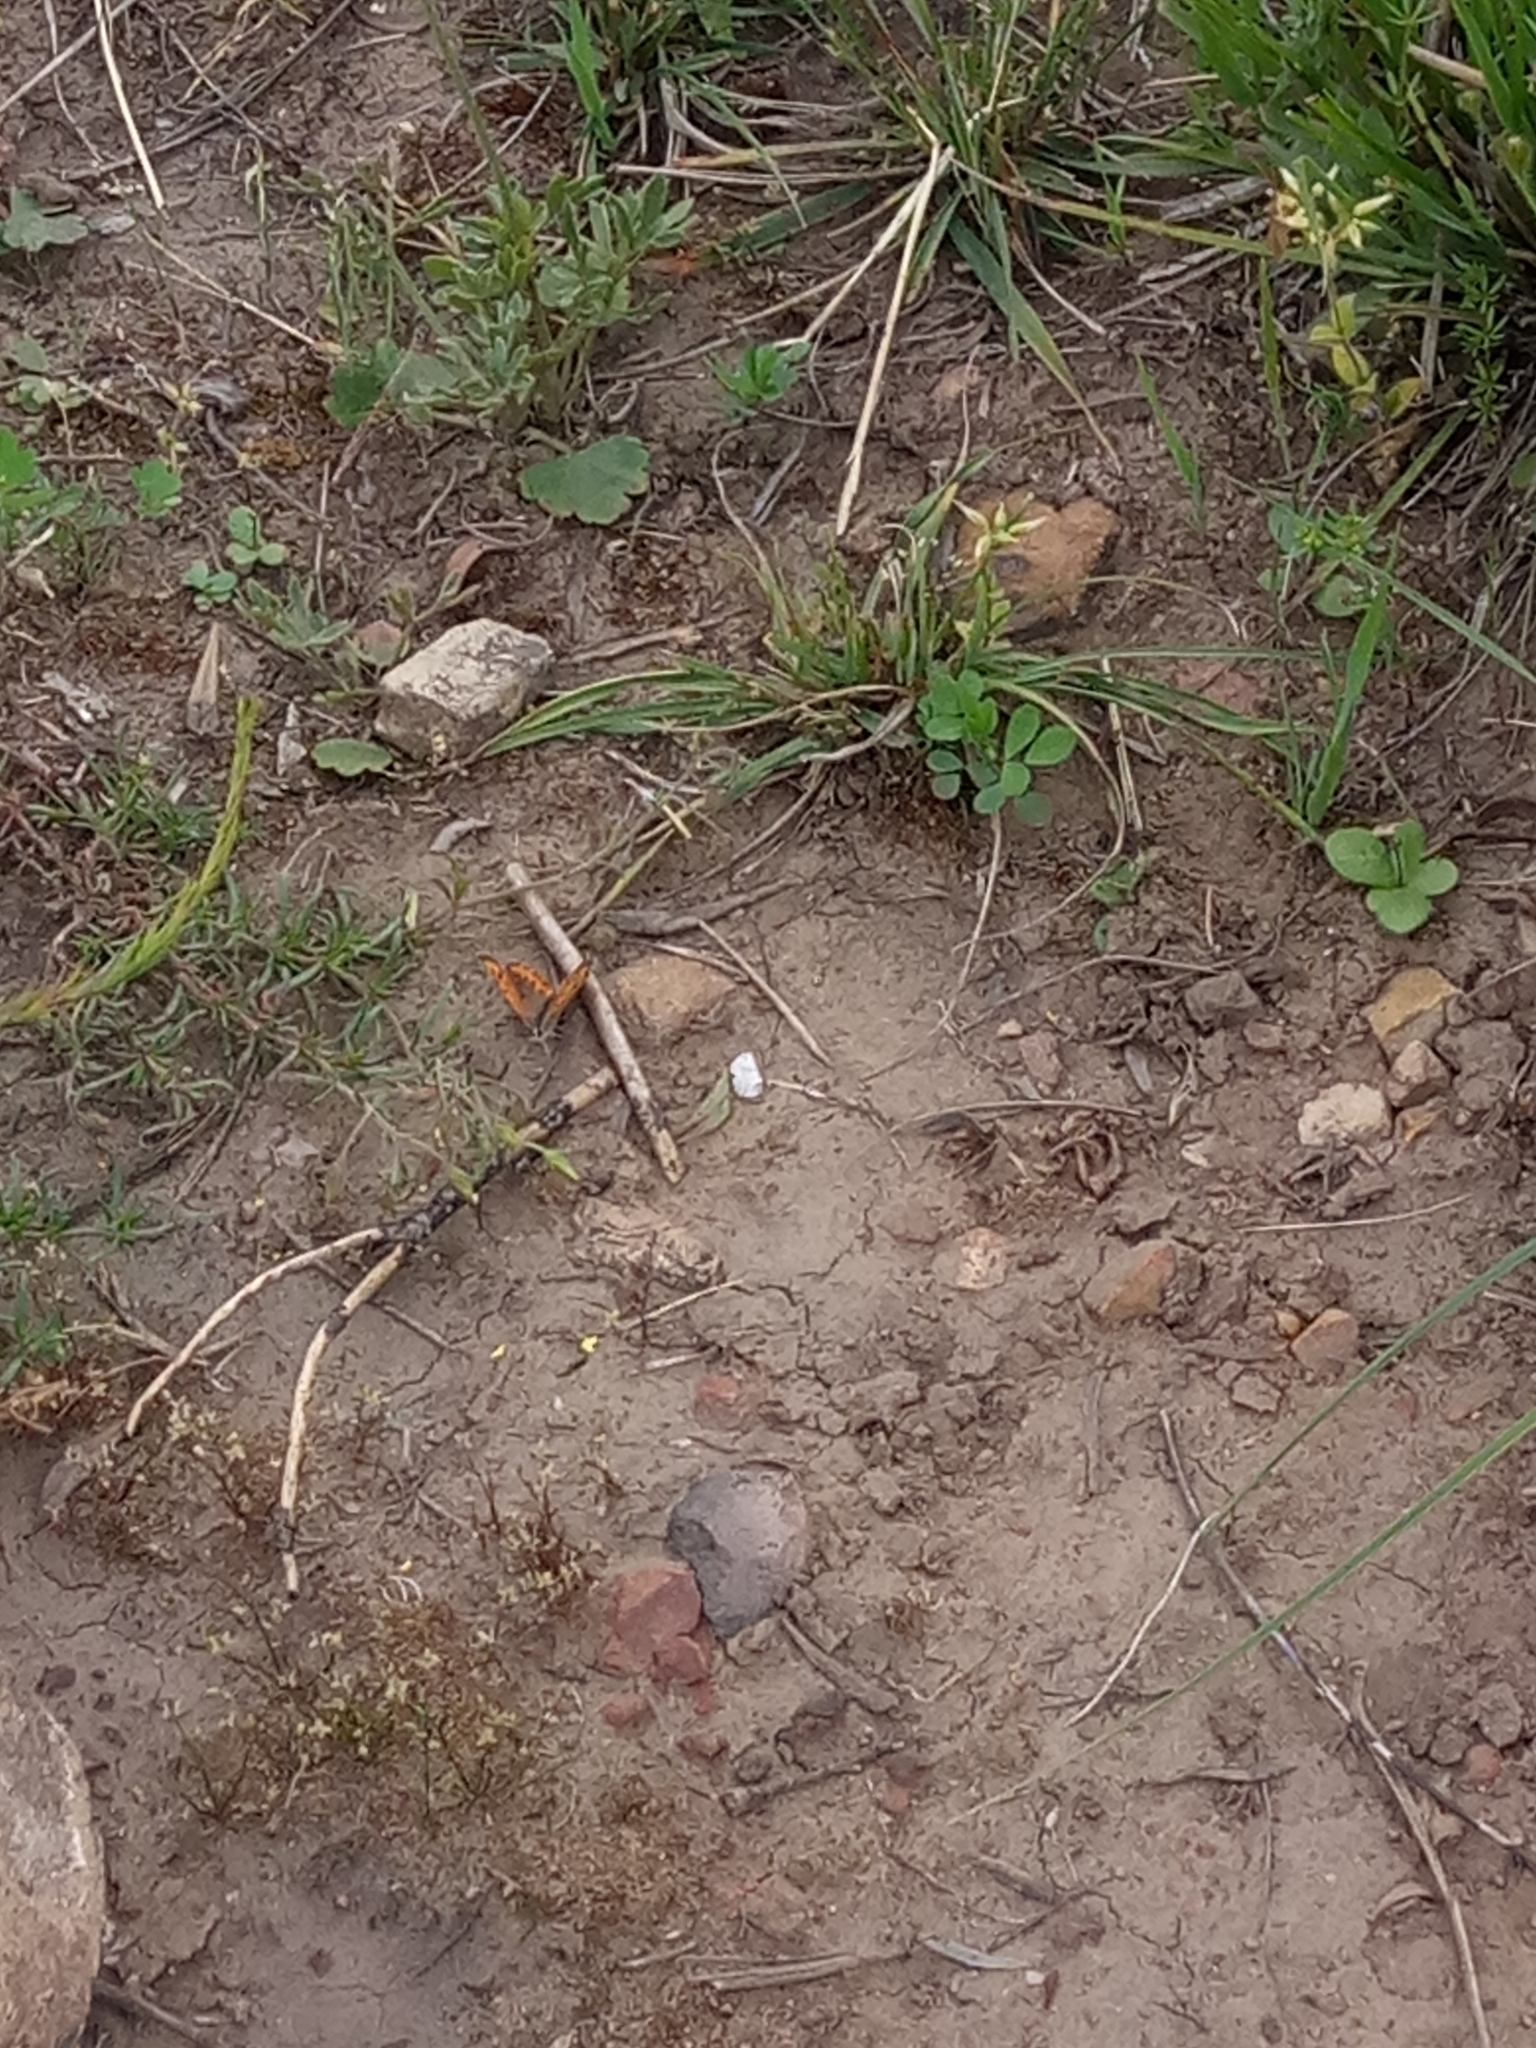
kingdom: Animalia
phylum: Arthropoda
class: Insecta
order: Lepidoptera
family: Lycaenidae
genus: Lycaena
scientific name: Lycaena phlaeas
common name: Small copper
